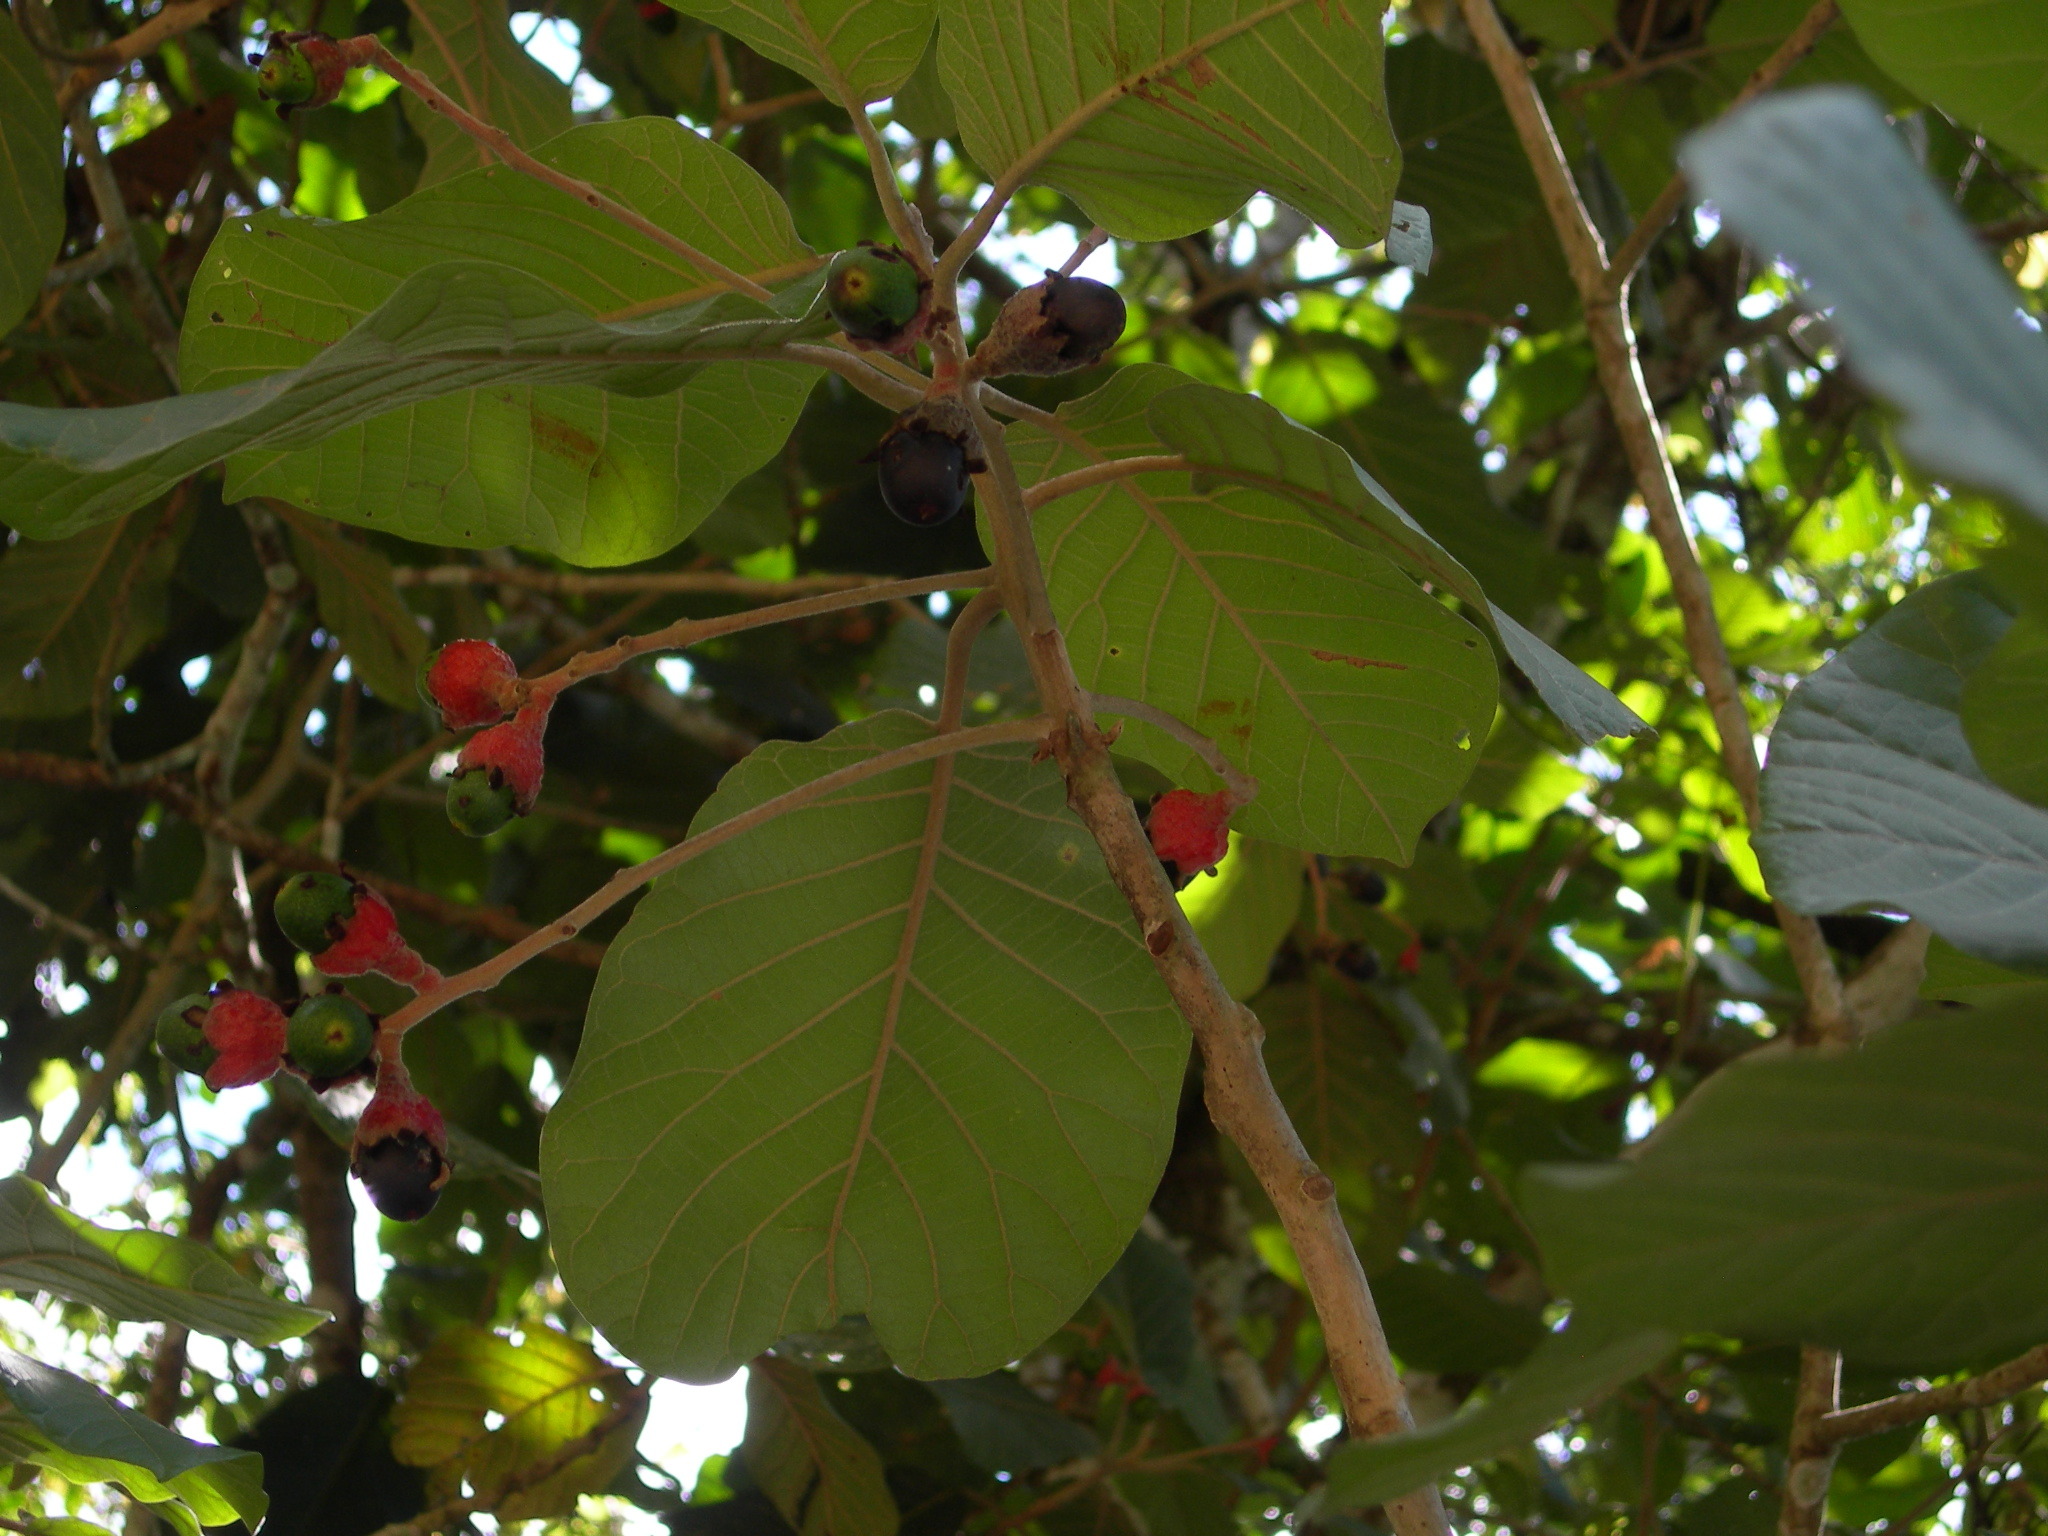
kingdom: Plantae
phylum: Tracheophyta
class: Magnoliopsida
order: Laurales
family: Lauraceae
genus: Ocotea
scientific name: Ocotea sinuata
